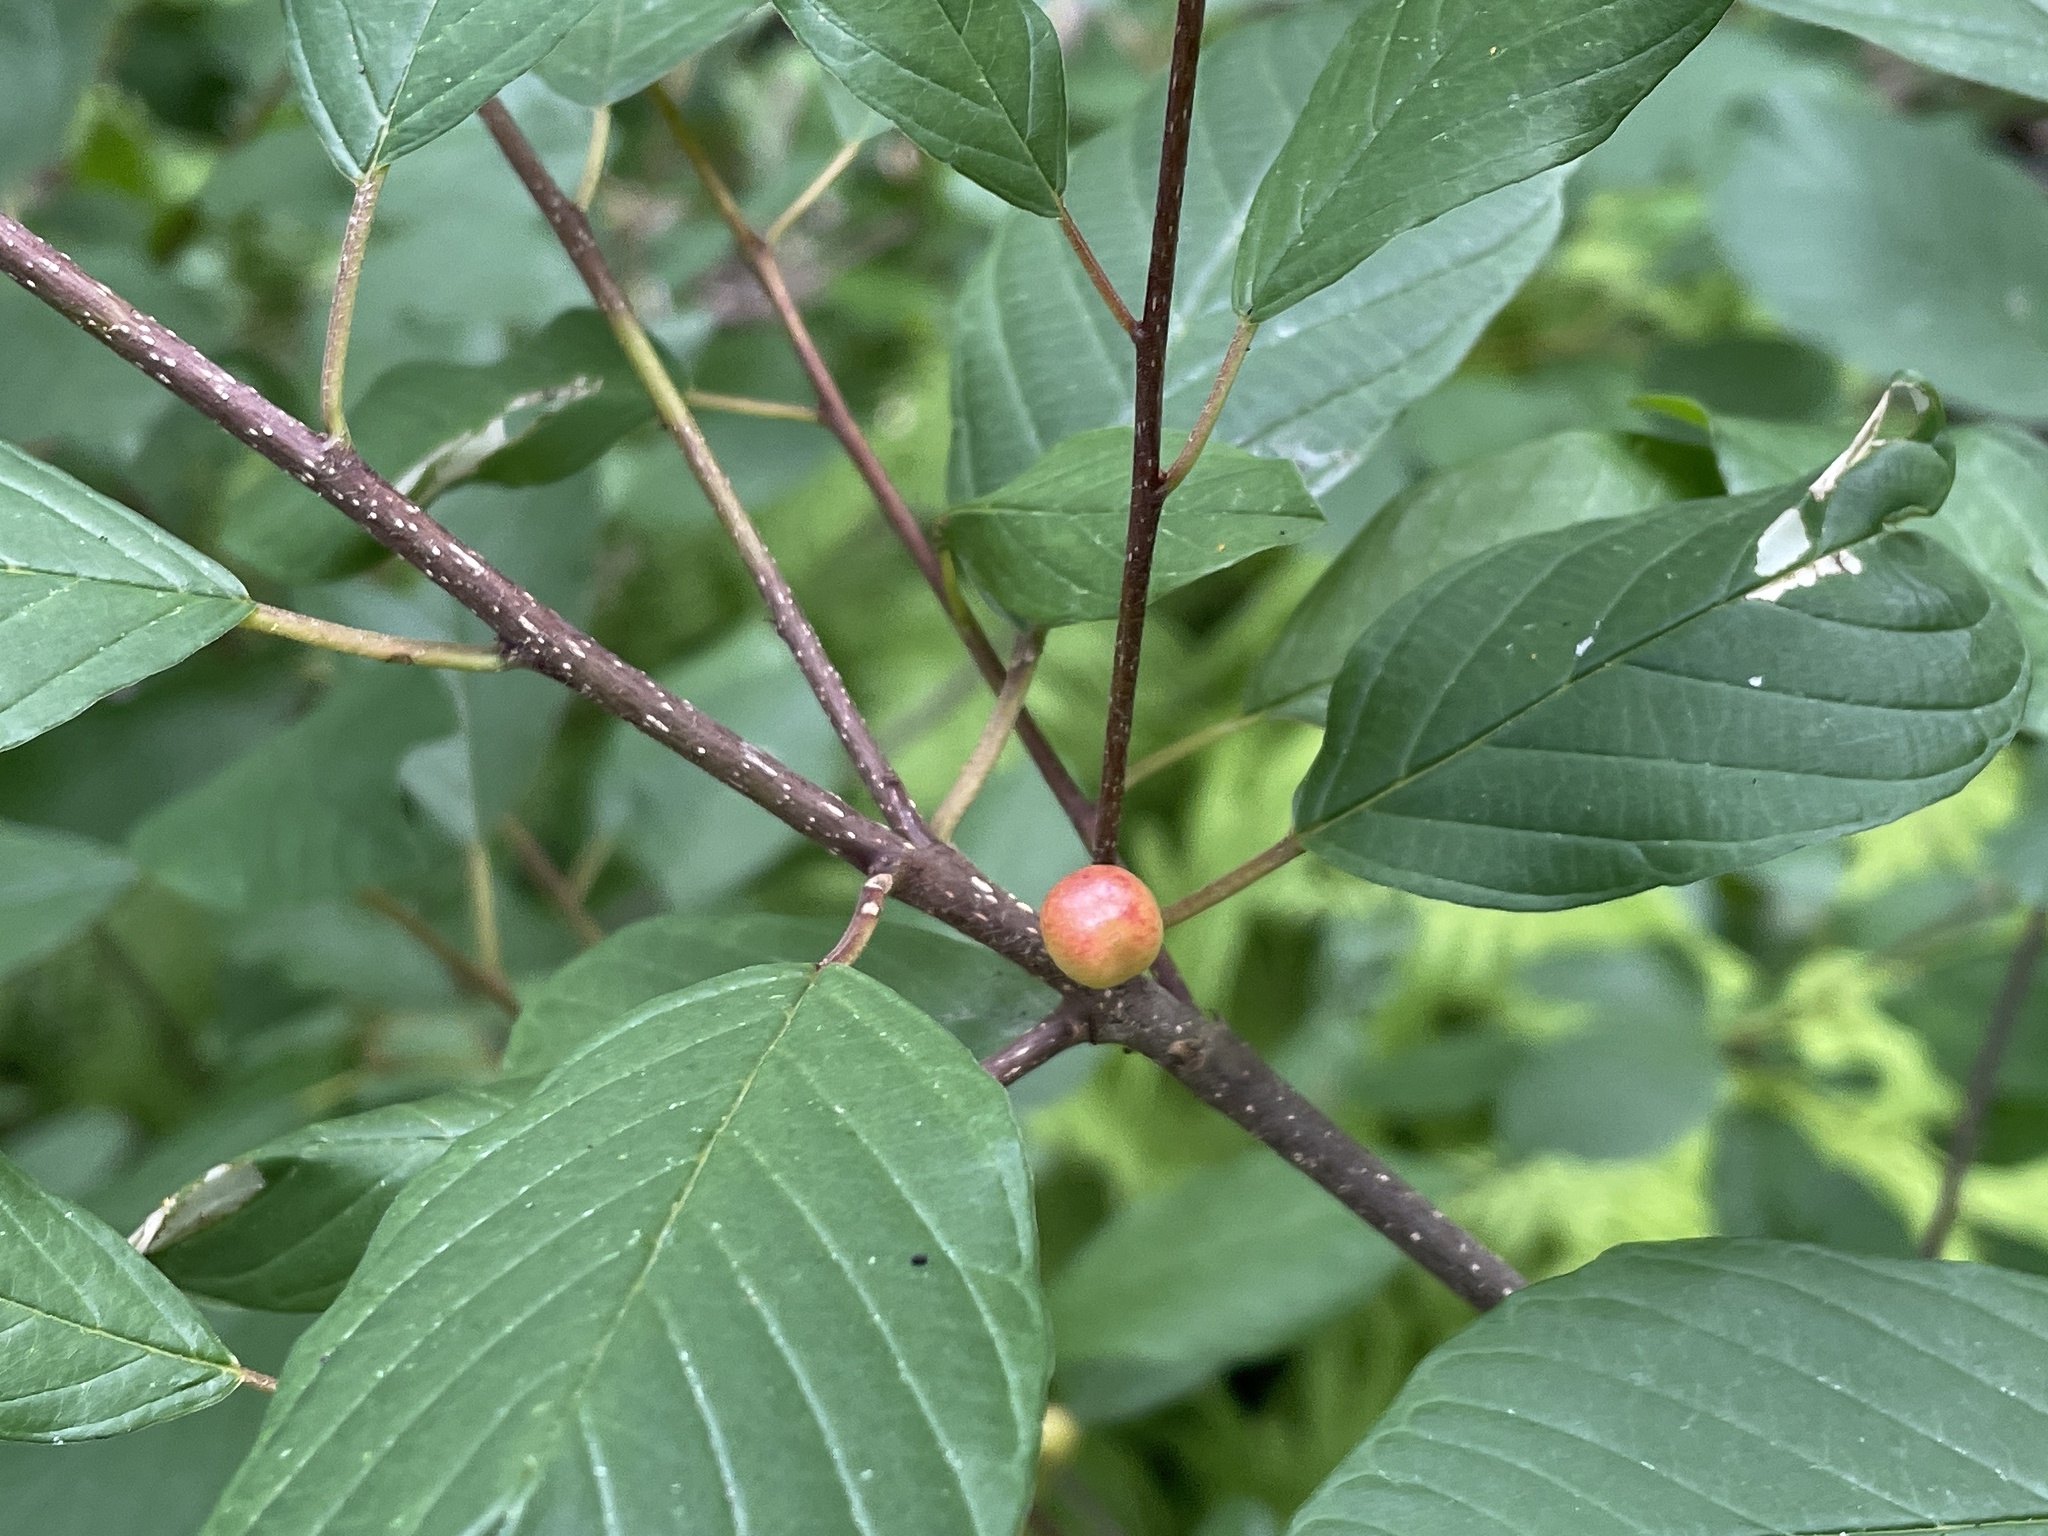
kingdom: Plantae
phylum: Tracheophyta
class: Magnoliopsida
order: Rosales
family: Rhamnaceae
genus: Frangula
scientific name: Frangula alnus
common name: Alder buckthorn
